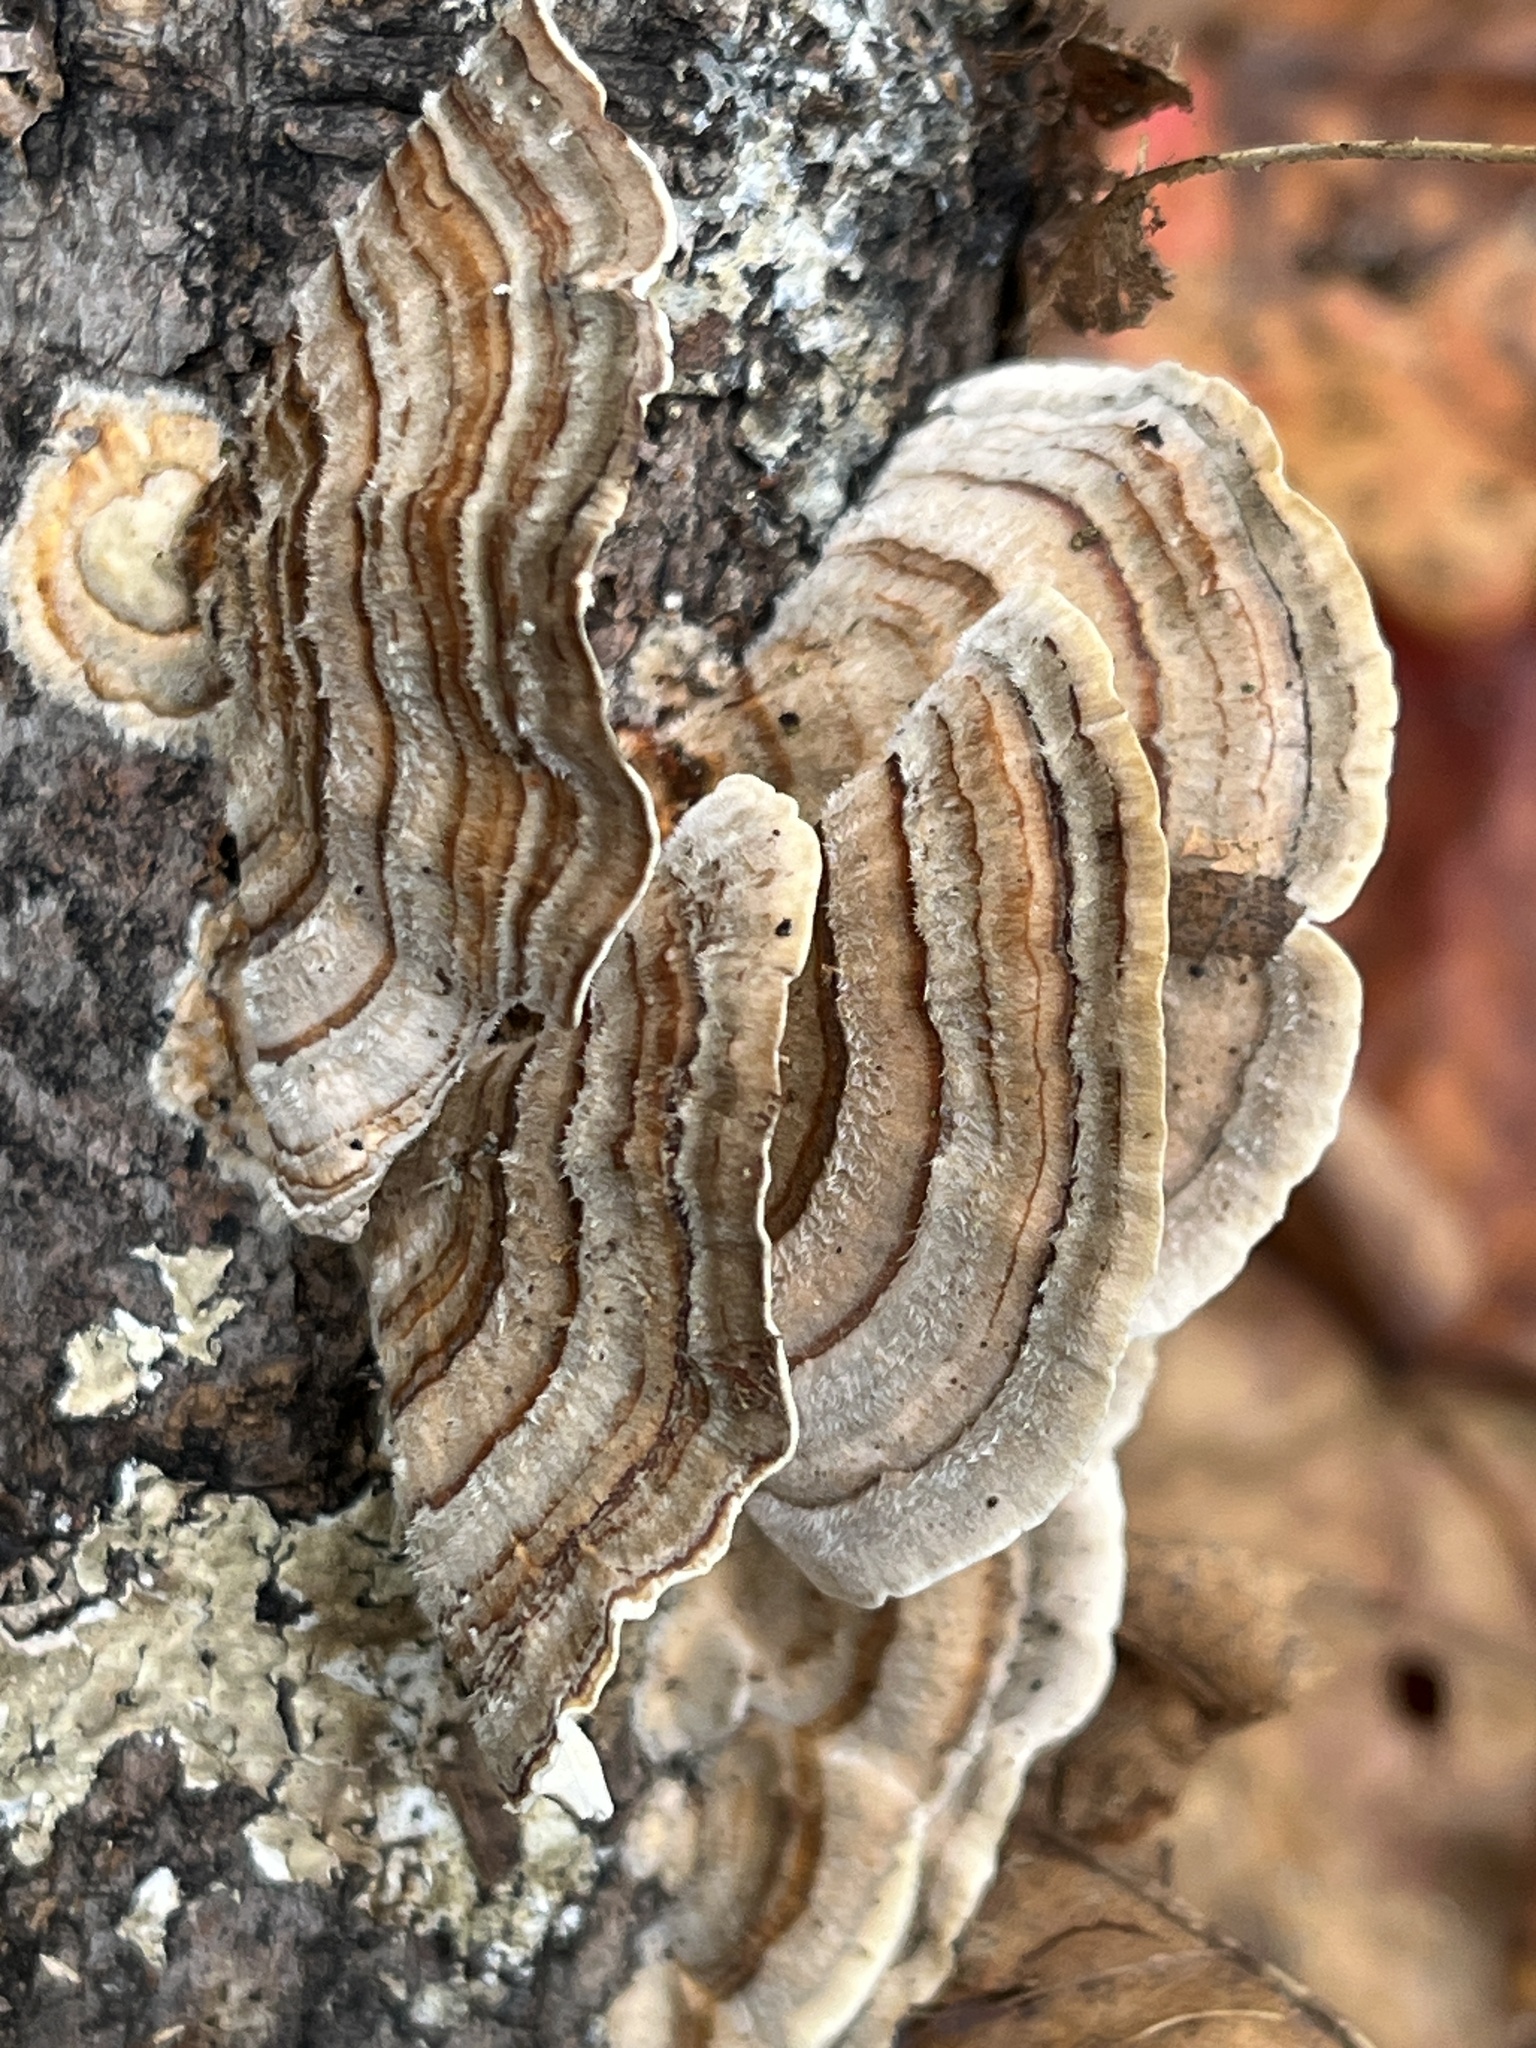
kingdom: Fungi
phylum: Basidiomycota
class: Agaricomycetes
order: Polyporales
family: Polyporaceae
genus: Trametes
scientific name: Trametes versicolor
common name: Turkeytail
